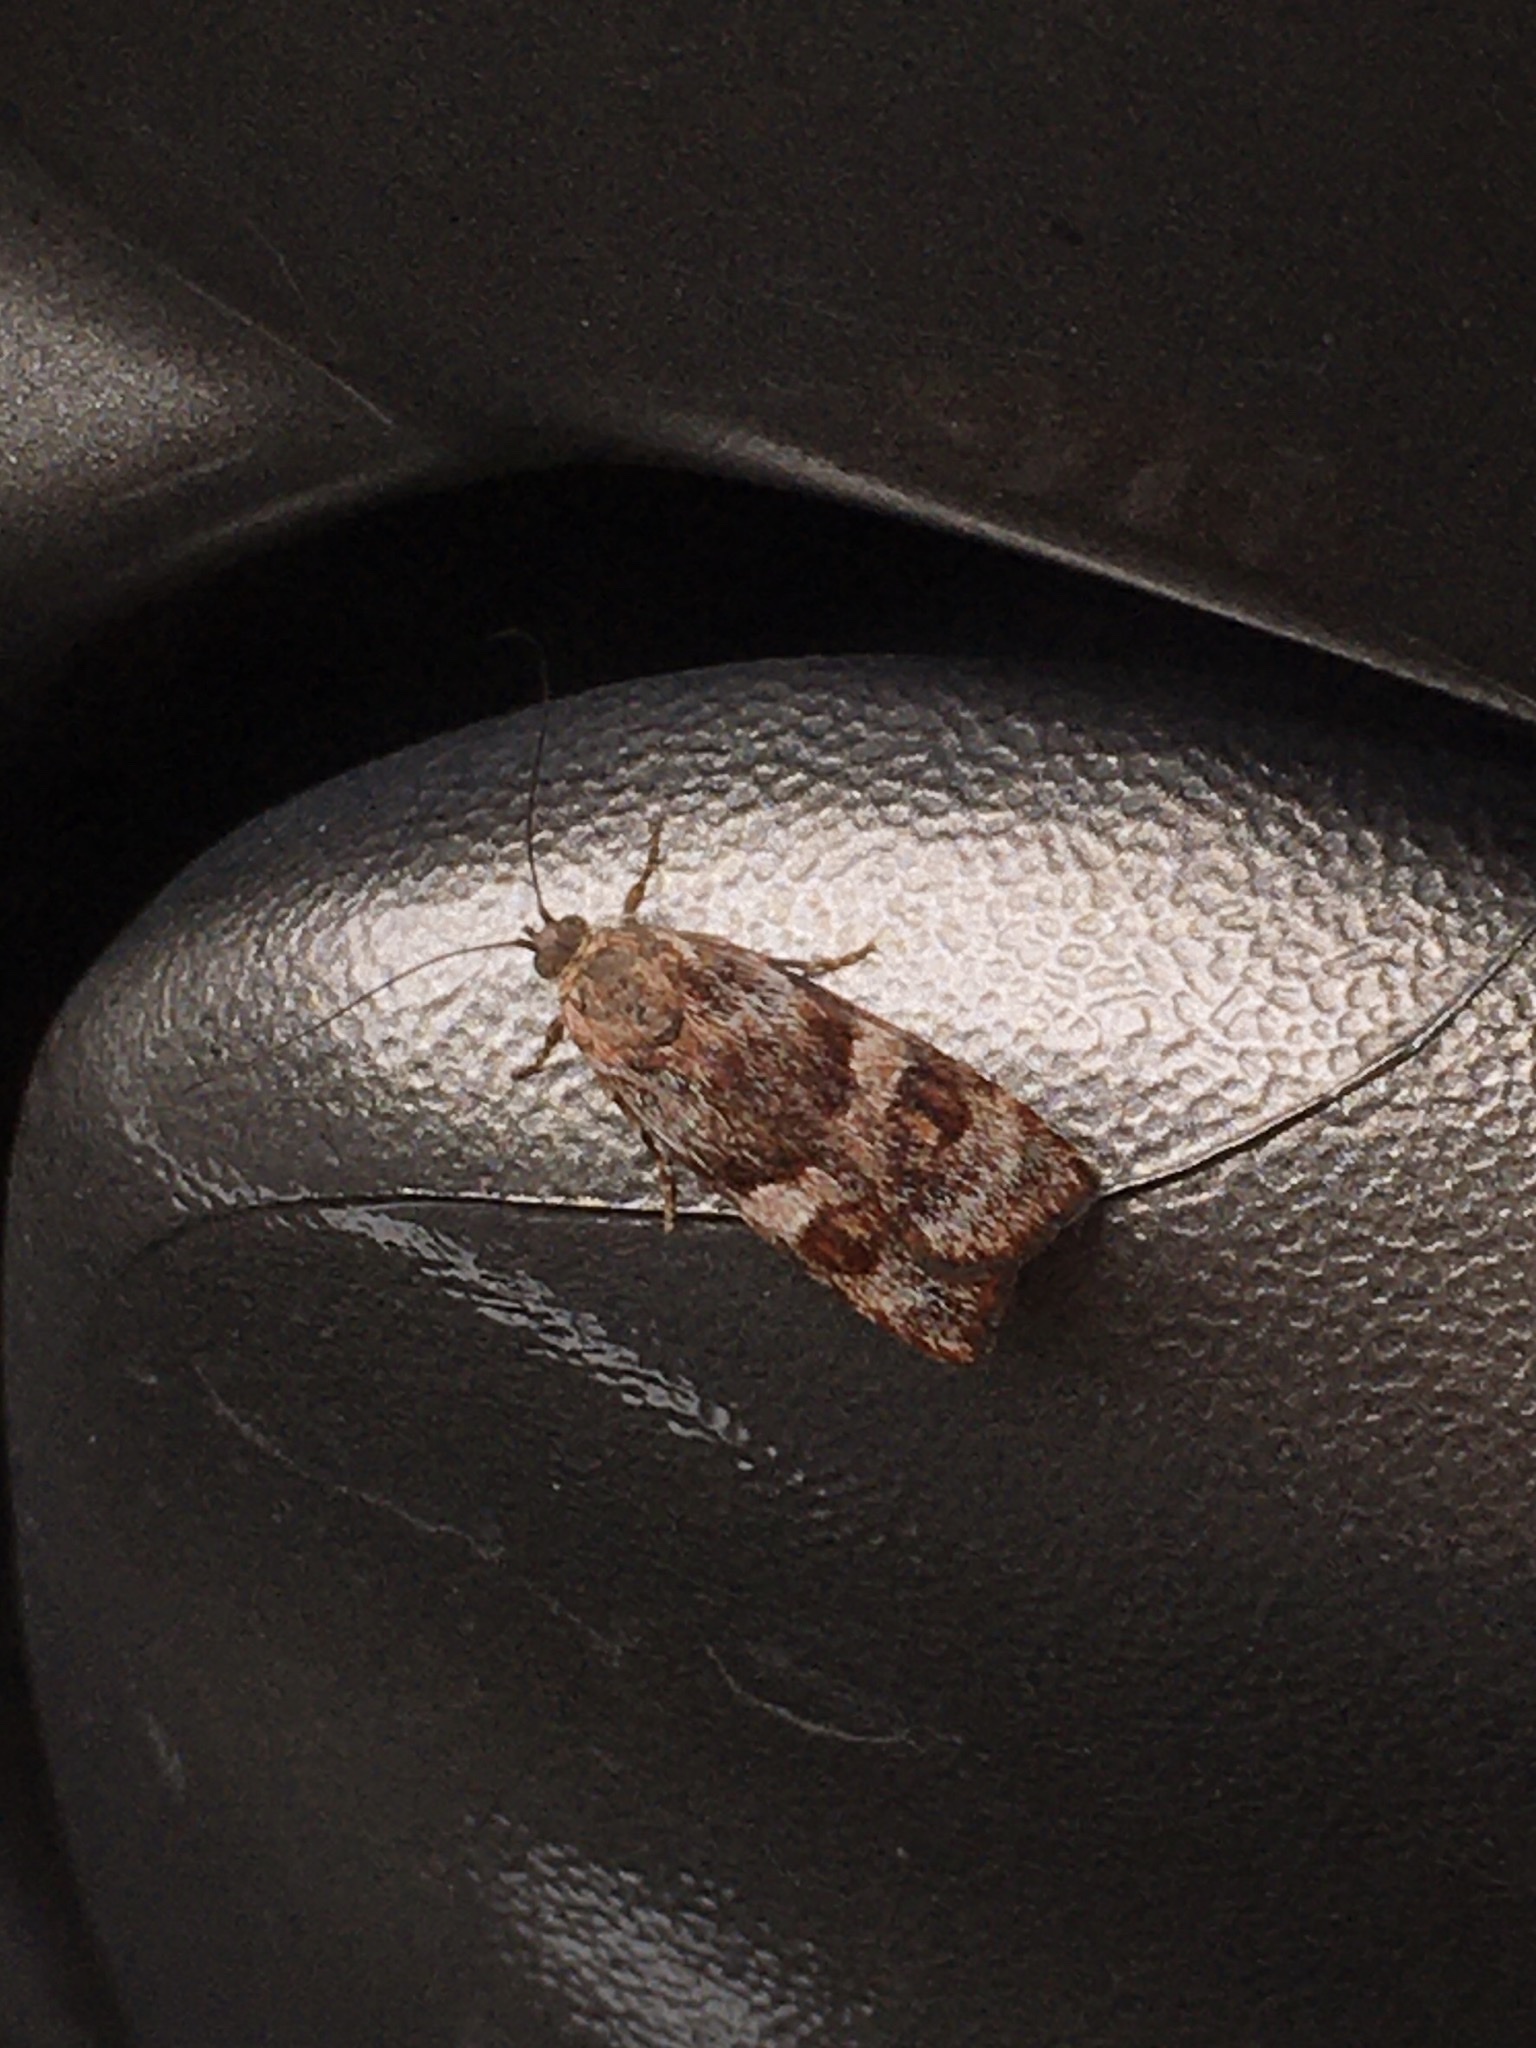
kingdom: Animalia
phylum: Arthropoda
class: Insecta
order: Lepidoptera
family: Oecophoridae
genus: Hierodoris
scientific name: Hierodoris
